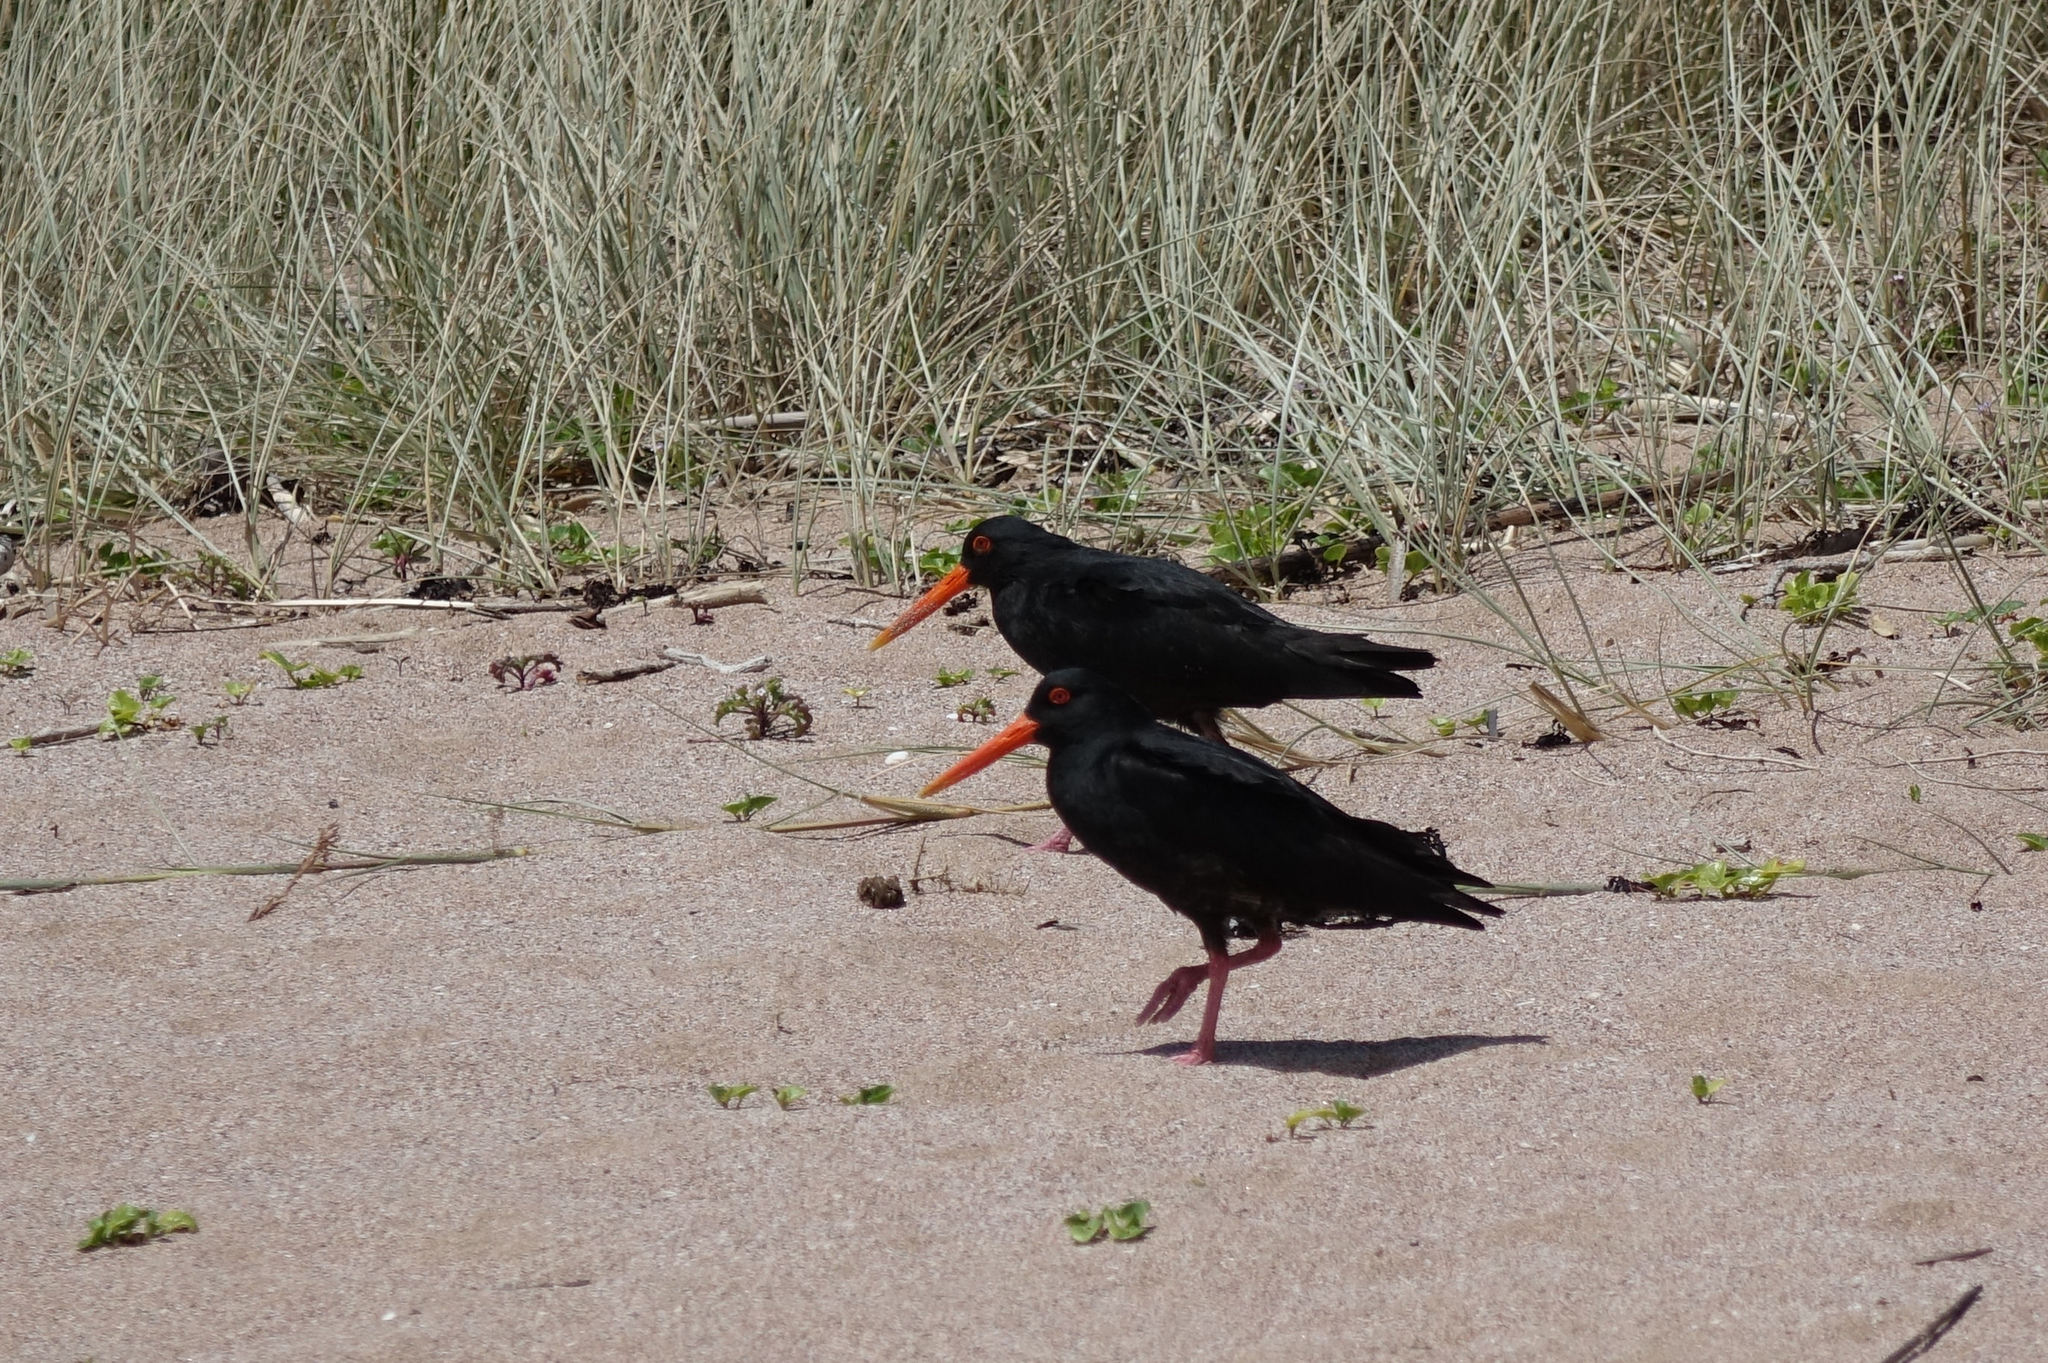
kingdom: Animalia
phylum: Chordata
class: Aves
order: Charadriiformes
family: Haematopodidae
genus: Haematopus
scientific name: Haematopus unicolor
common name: Variable oystercatcher
